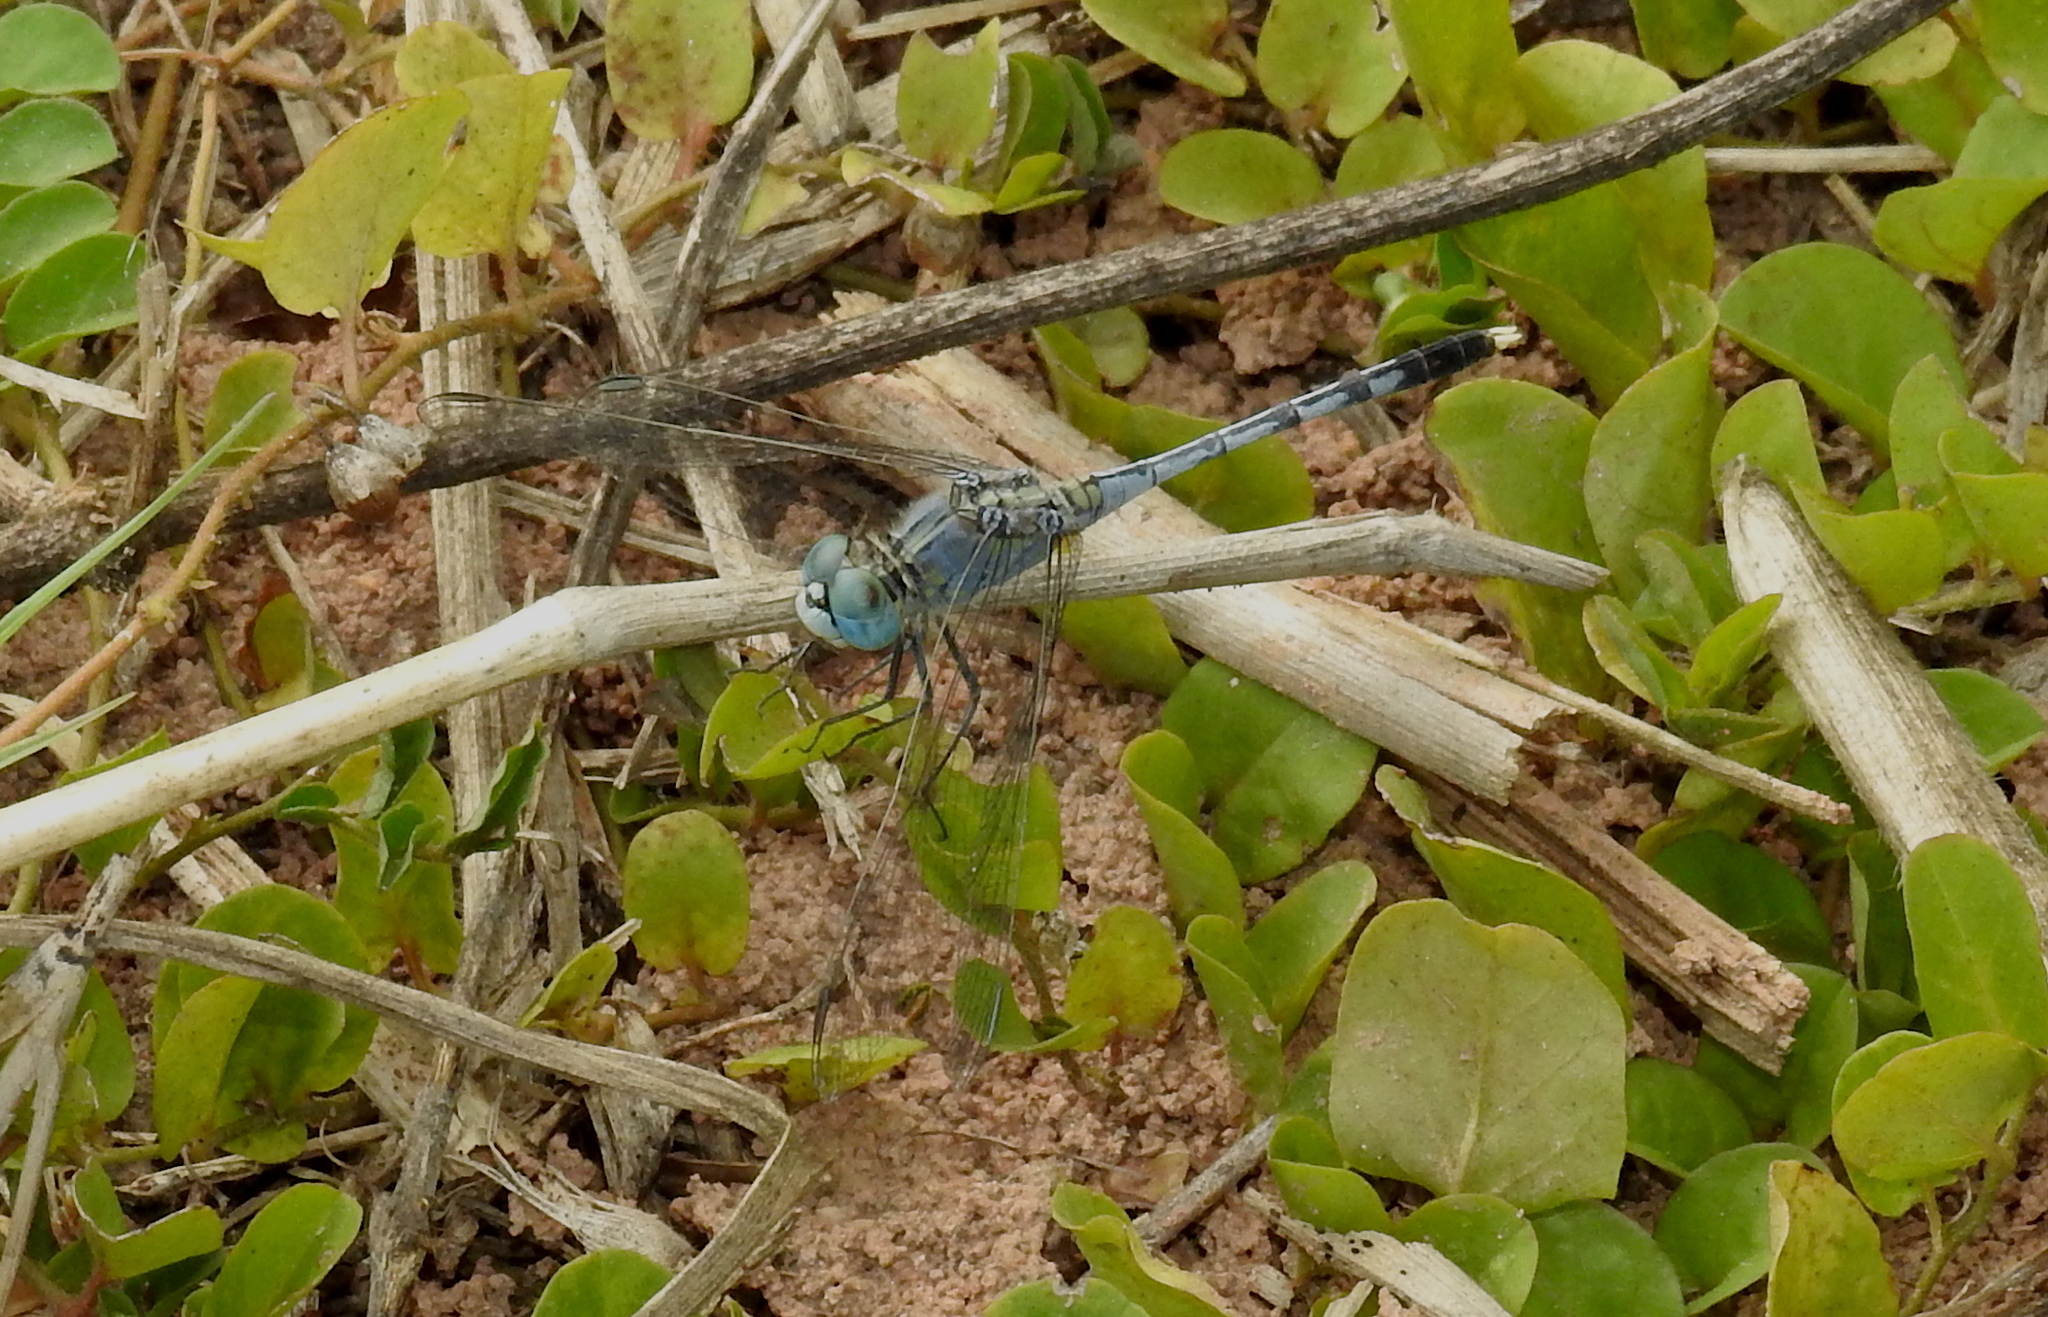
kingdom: Animalia
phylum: Arthropoda
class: Insecta
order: Odonata
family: Libellulidae
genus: Diplacodes
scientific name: Diplacodes trivialis
